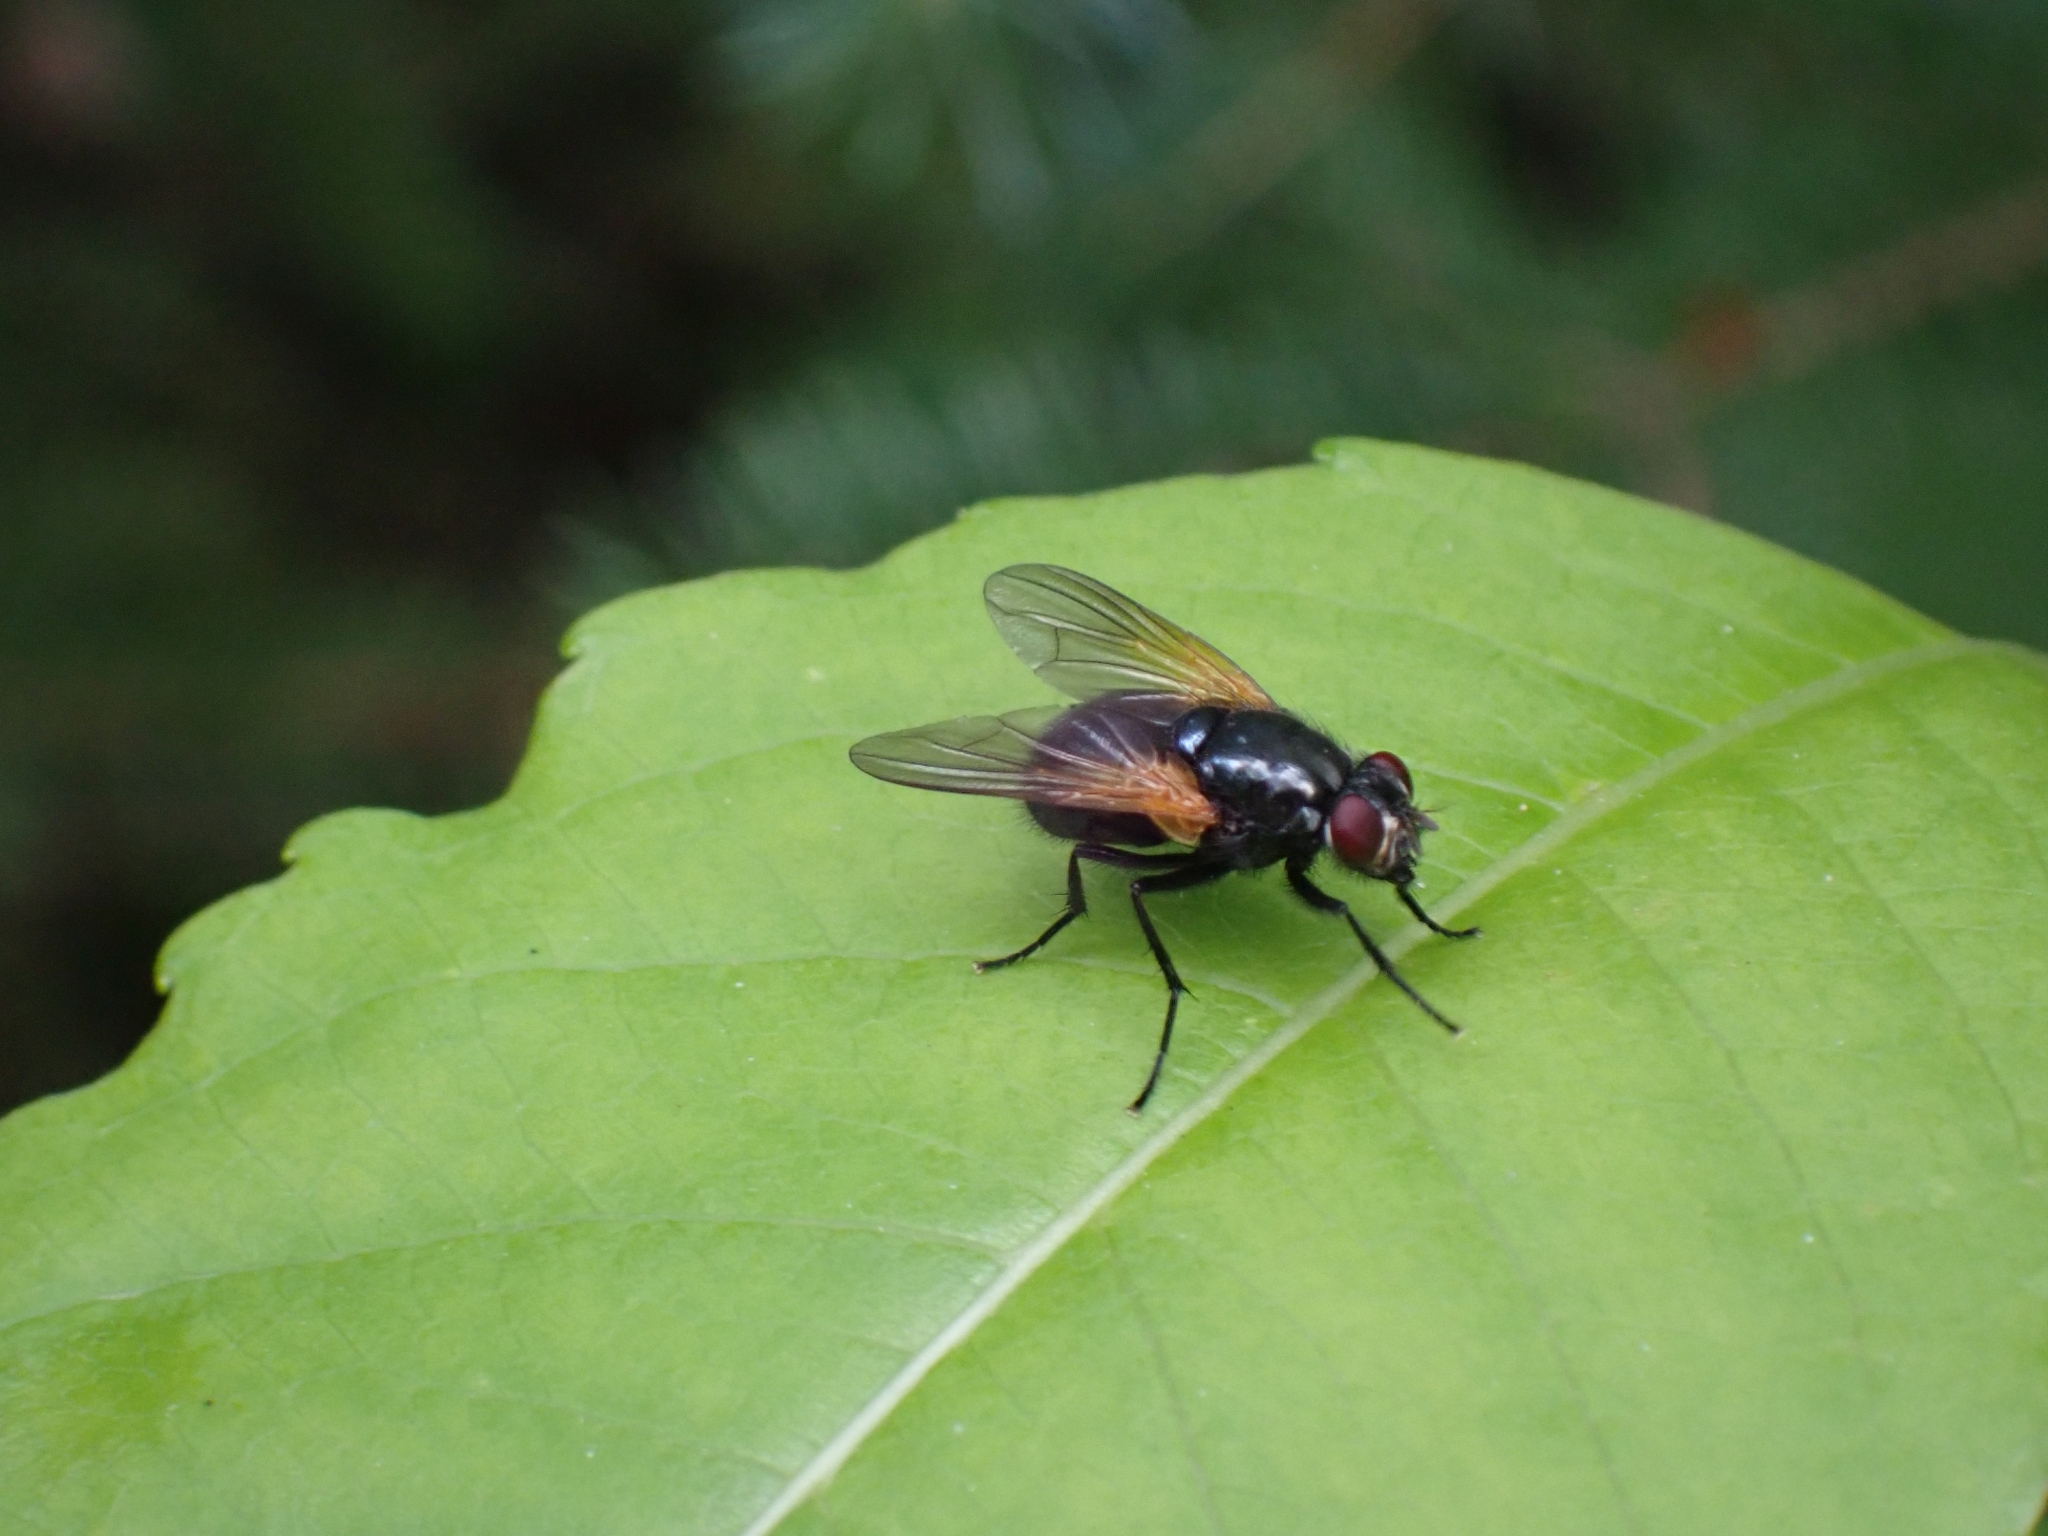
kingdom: Animalia
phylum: Arthropoda
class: Insecta
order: Diptera
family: Muscidae
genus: Mesembrina
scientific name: Mesembrina latreillii
